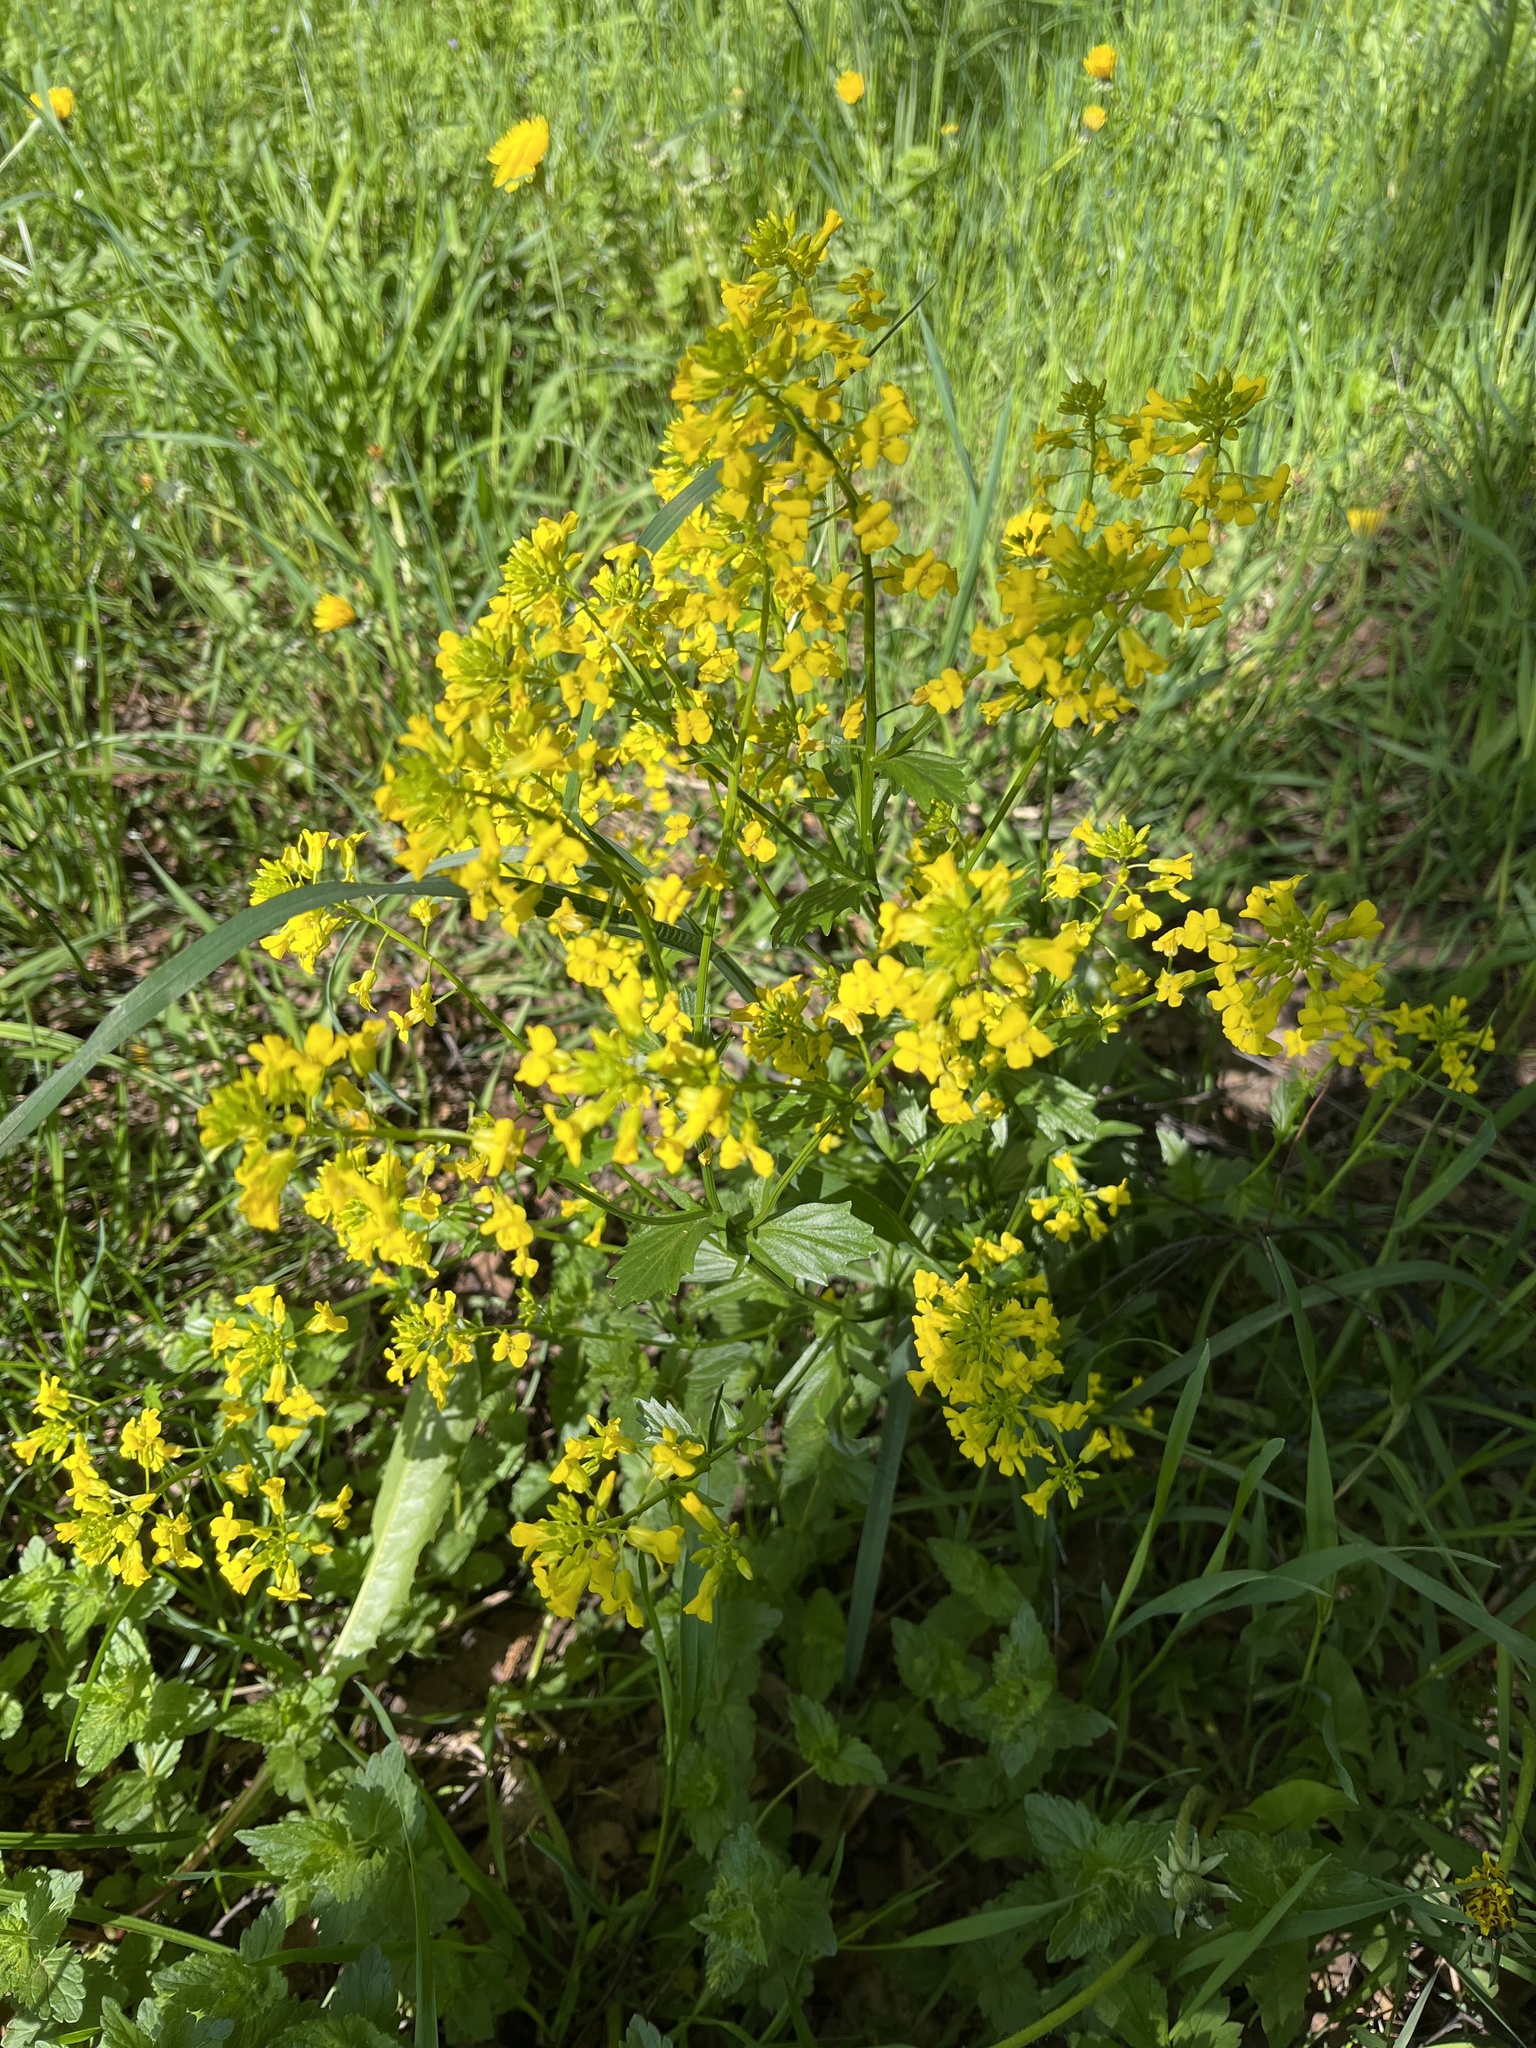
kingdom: Plantae
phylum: Tracheophyta
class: Magnoliopsida
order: Brassicales
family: Brassicaceae
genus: Barbarea
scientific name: Barbarea vulgaris
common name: Cressy-greens
